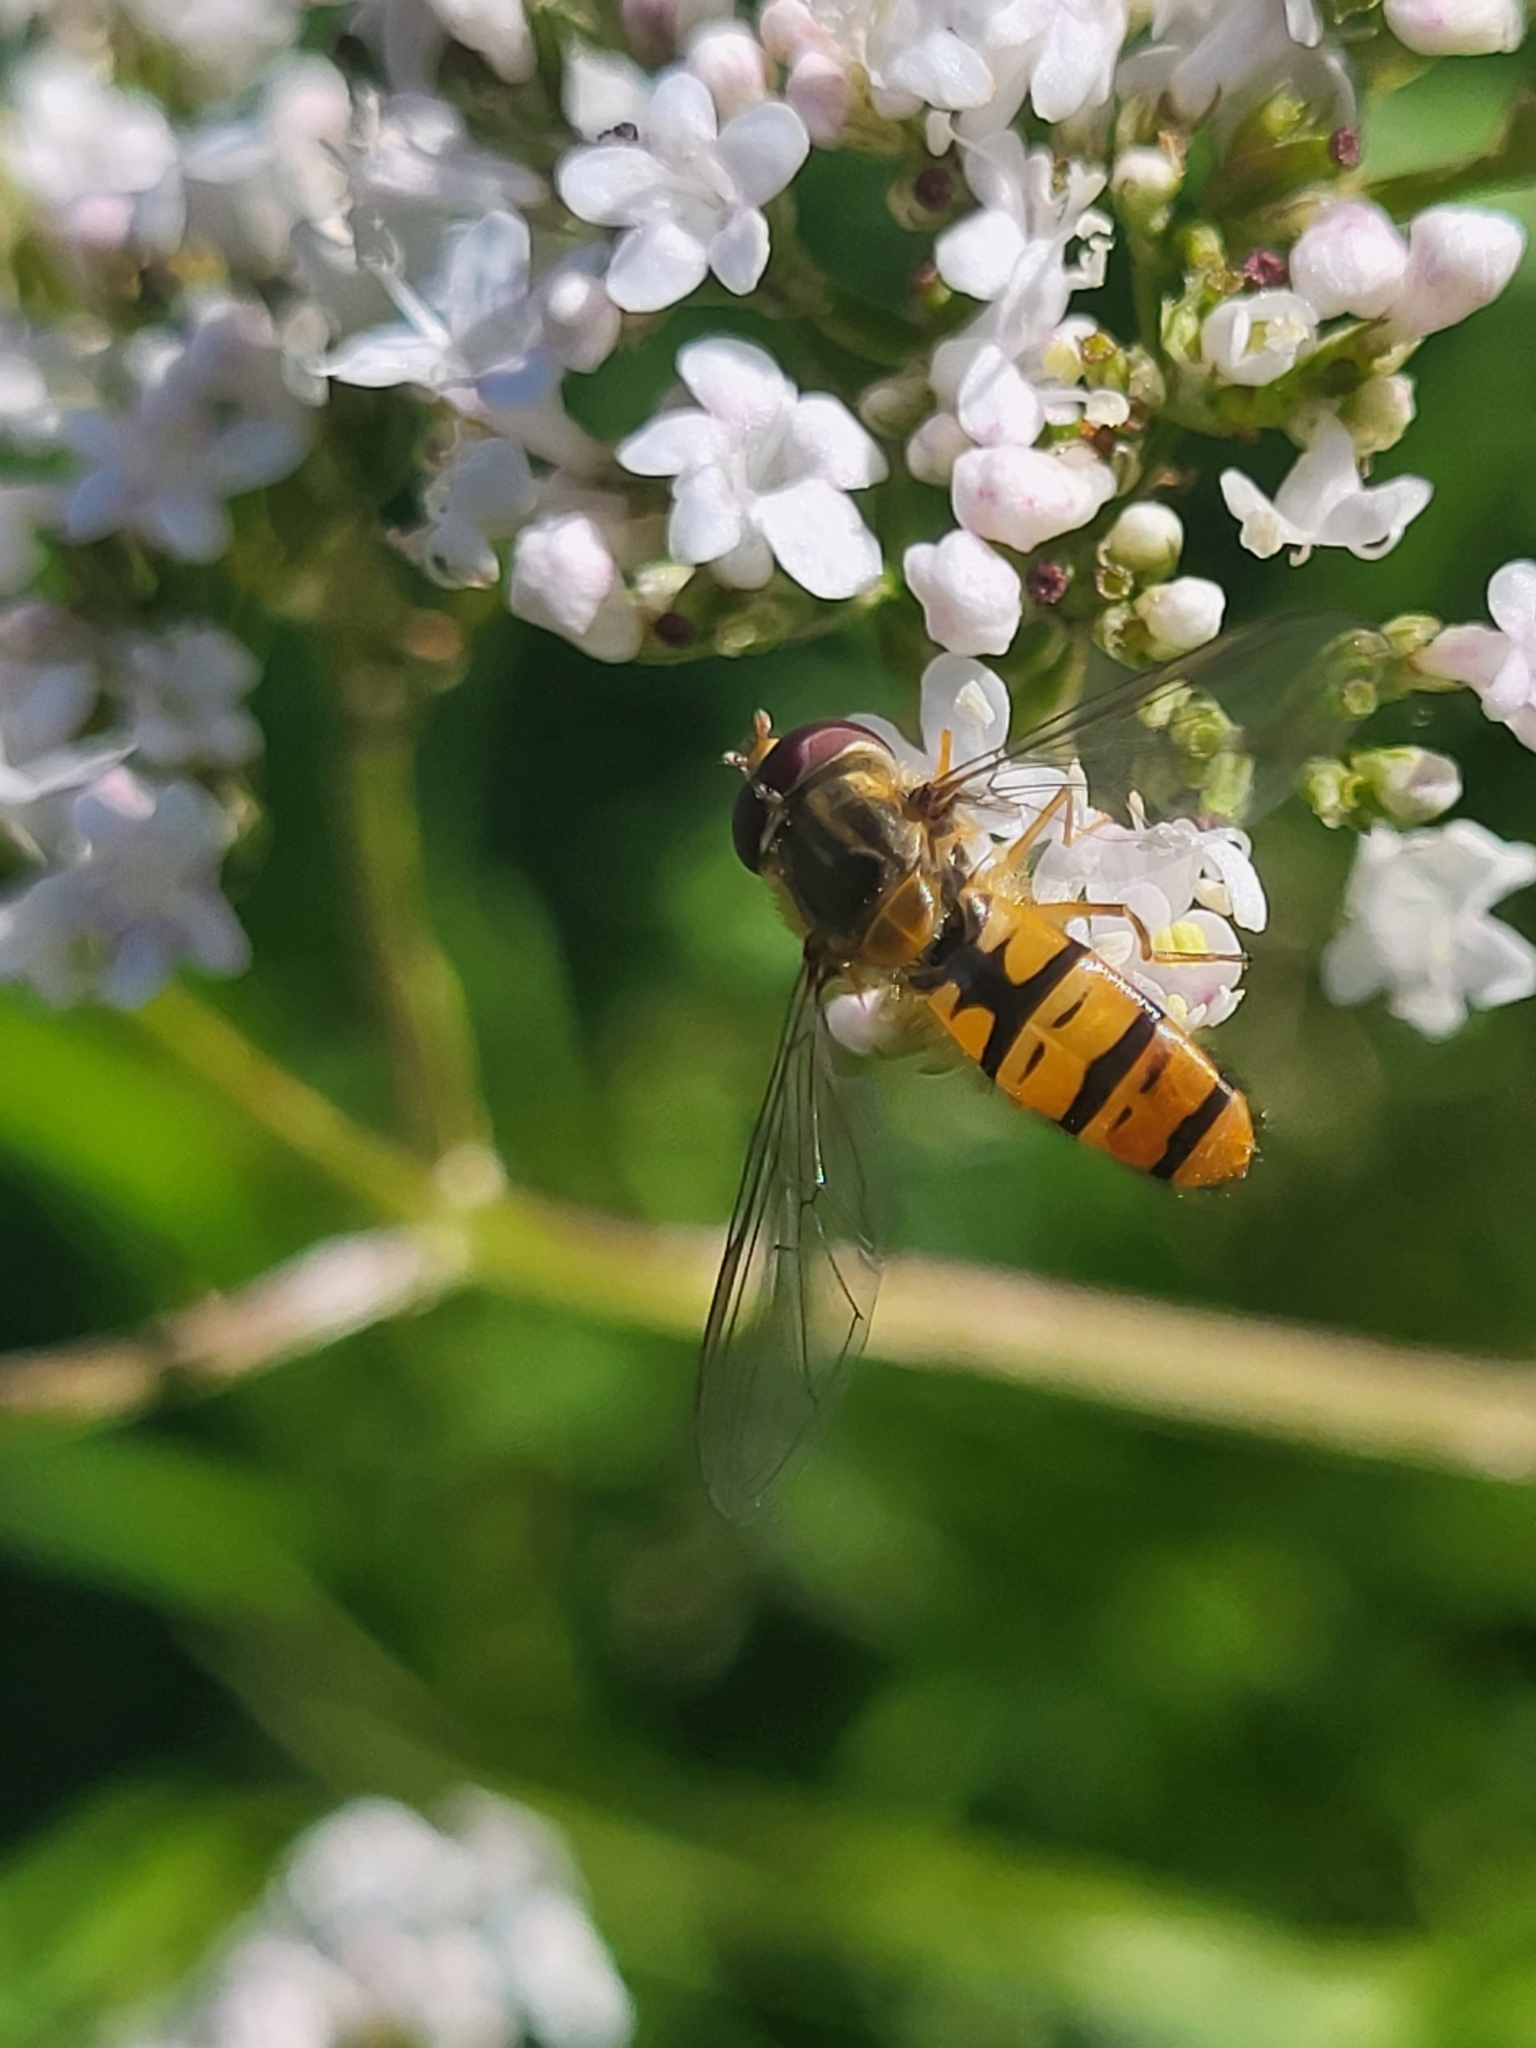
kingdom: Animalia
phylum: Arthropoda
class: Insecta
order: Diptera
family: Syrphidae
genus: Episyrphus
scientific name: Episyrphus balteatus
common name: Marmalade hoverfly
